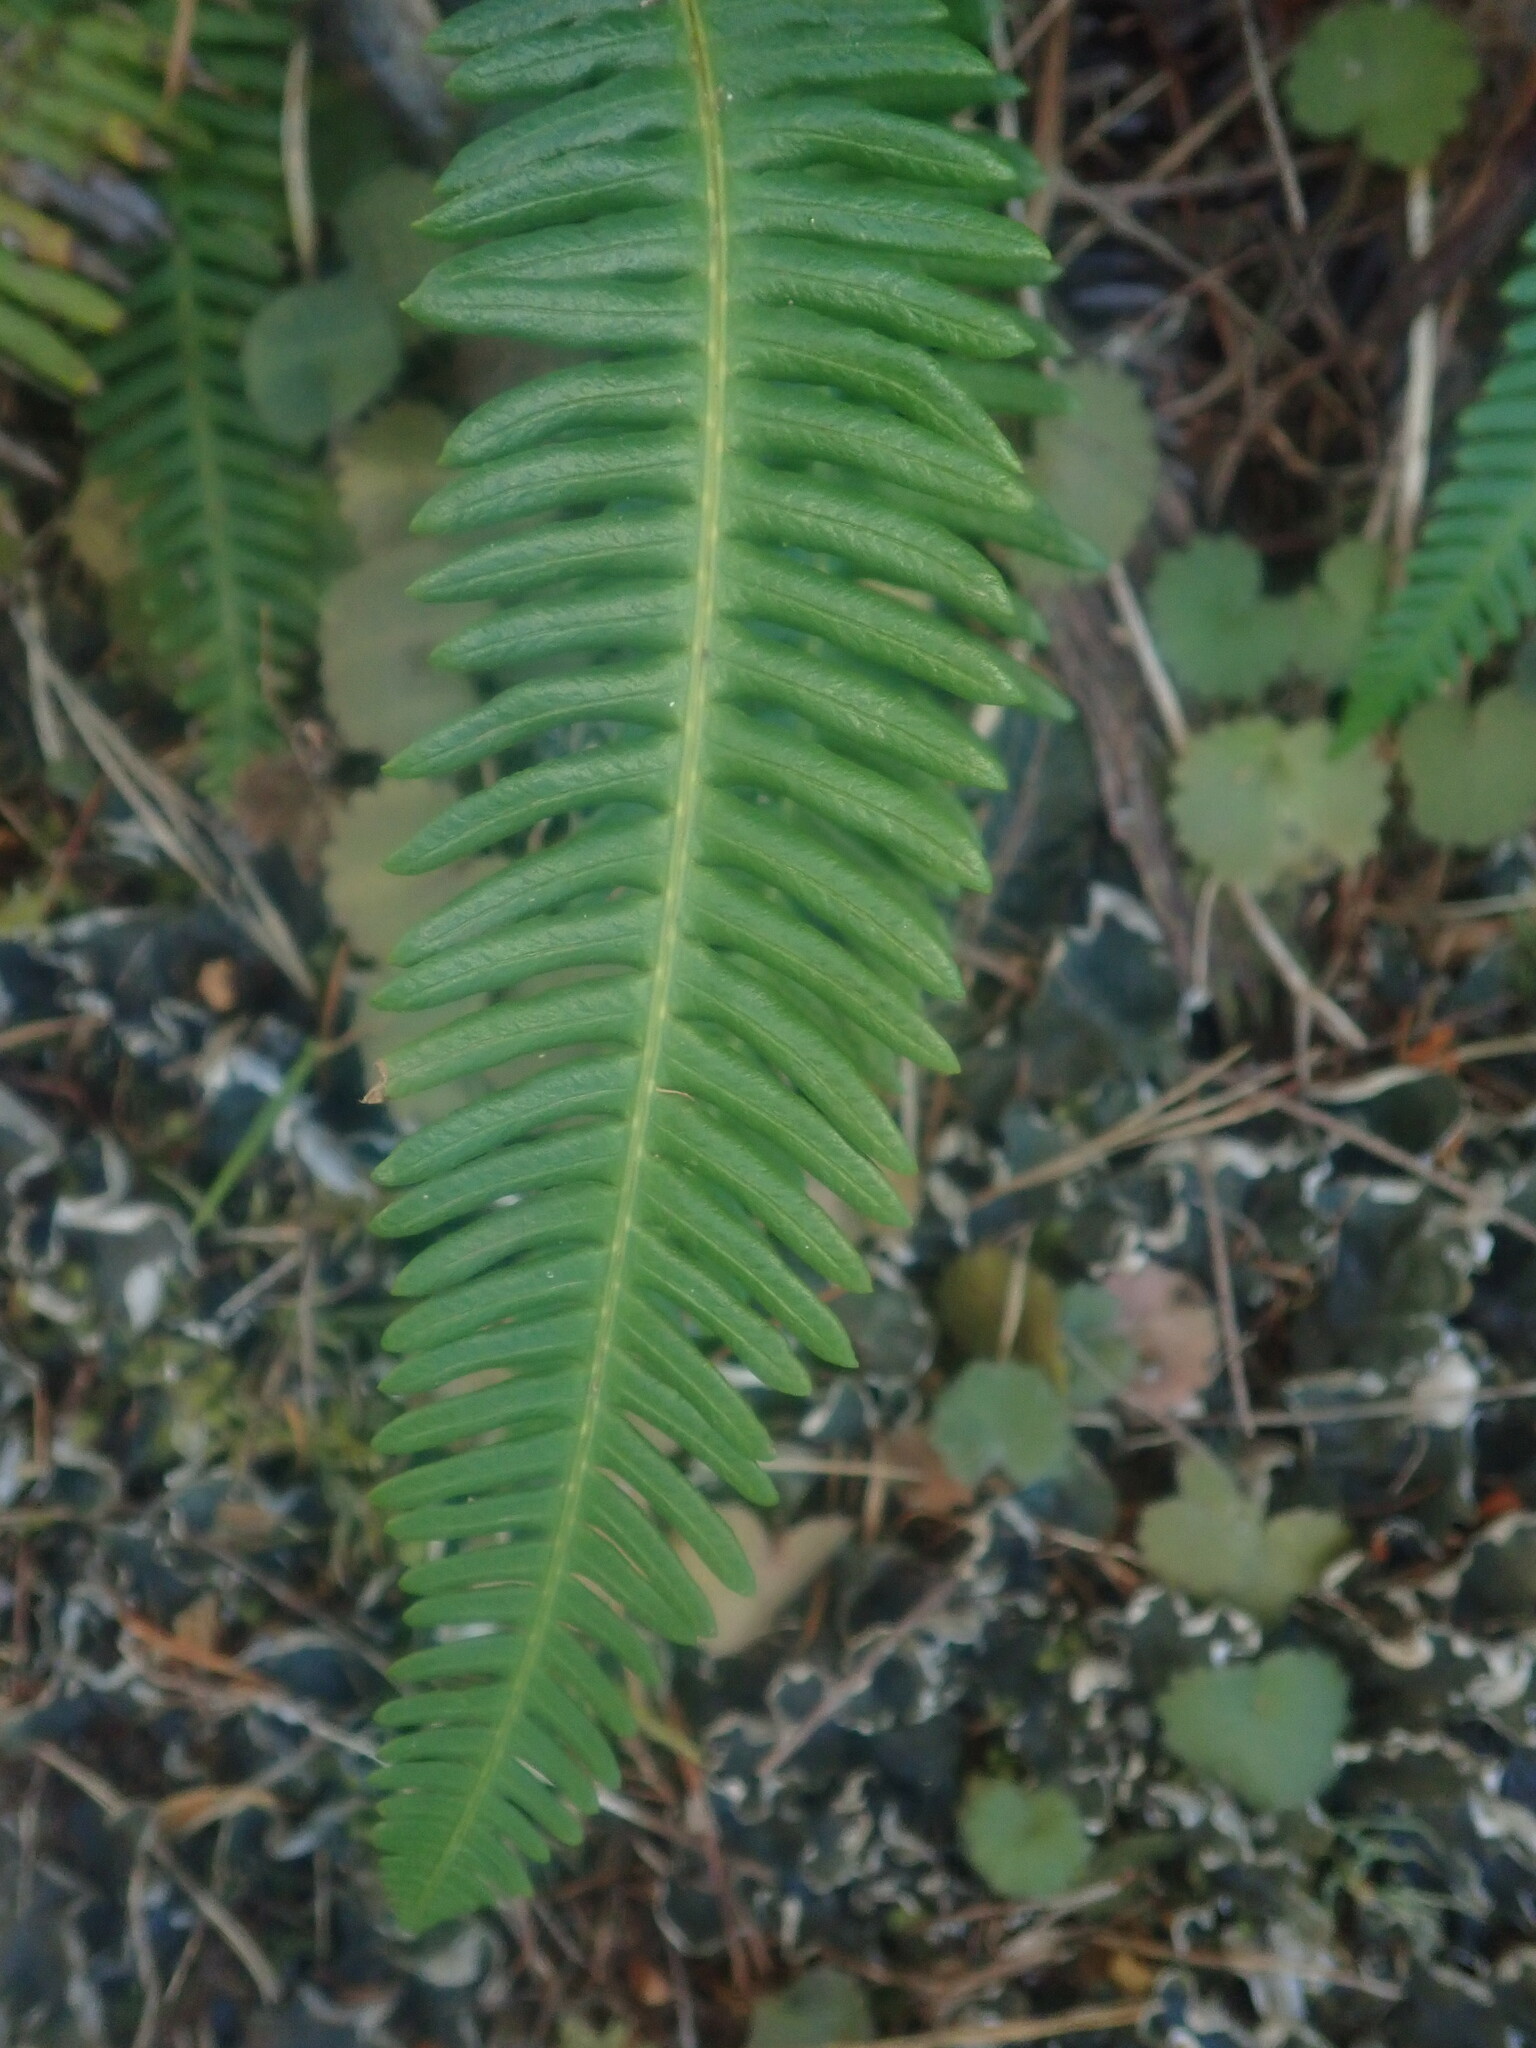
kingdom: Plantae
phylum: Tracheophyta
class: Polypodiopsida
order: Polypodiales
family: Blechnaceae
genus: Struthiopteris
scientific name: Struthiopteris spicant
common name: Deer fern
